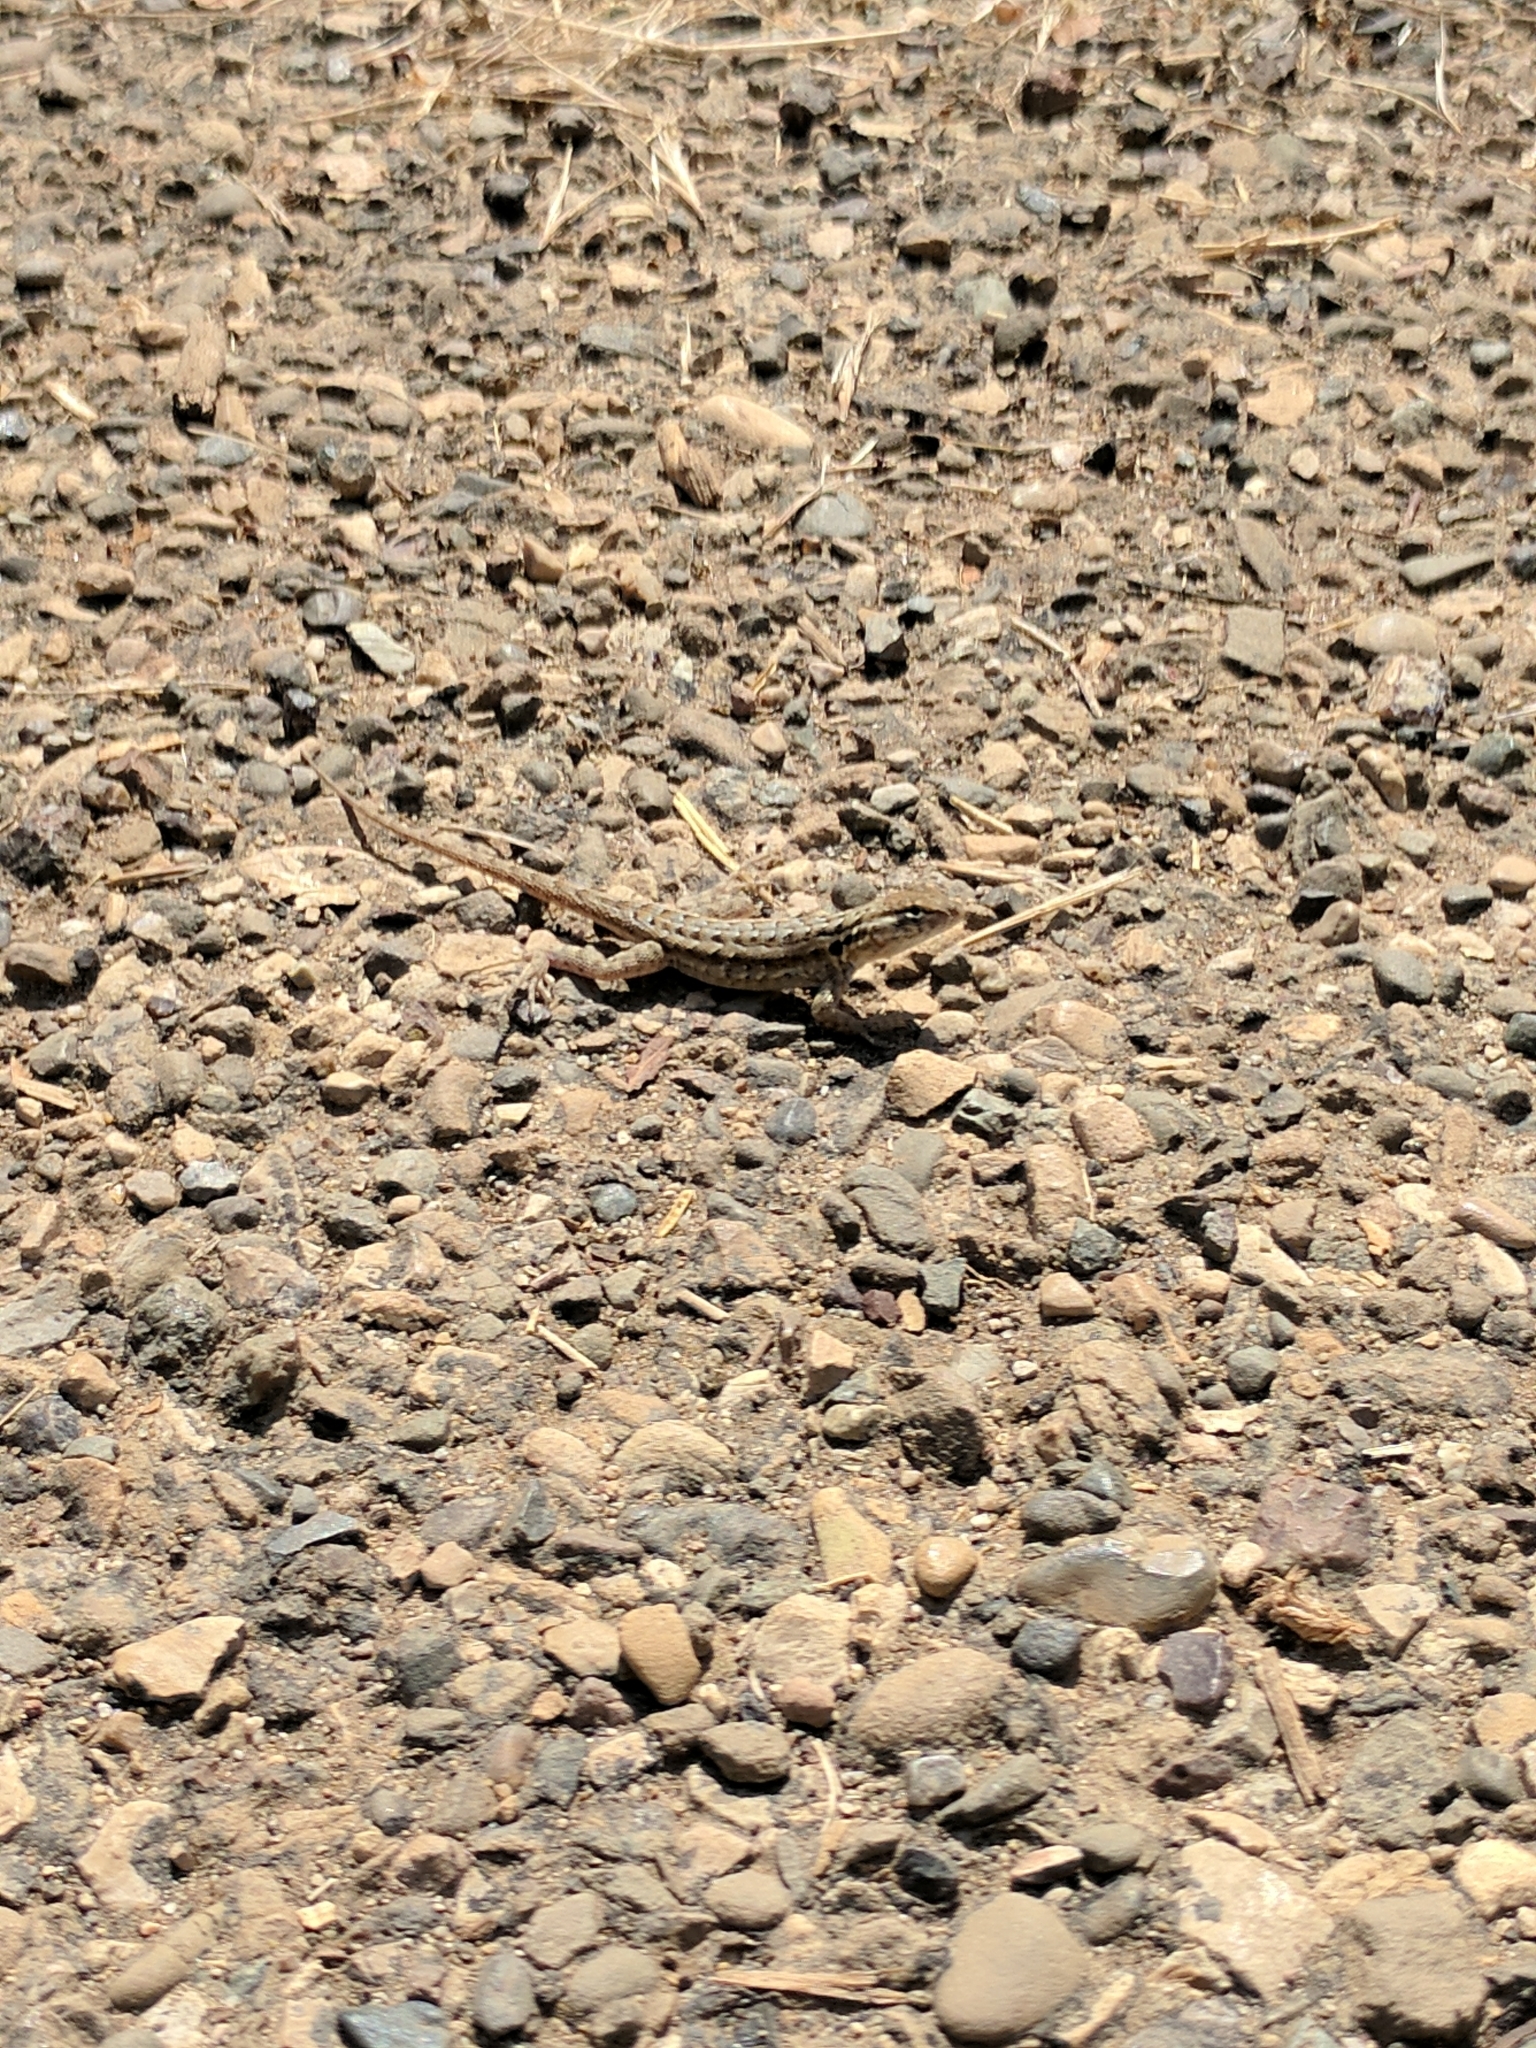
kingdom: Animalia
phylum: Chordata
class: Squamata
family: Phrynosomatidae
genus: Uta
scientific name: Uta stansburiana
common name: Side-blotched lizard
